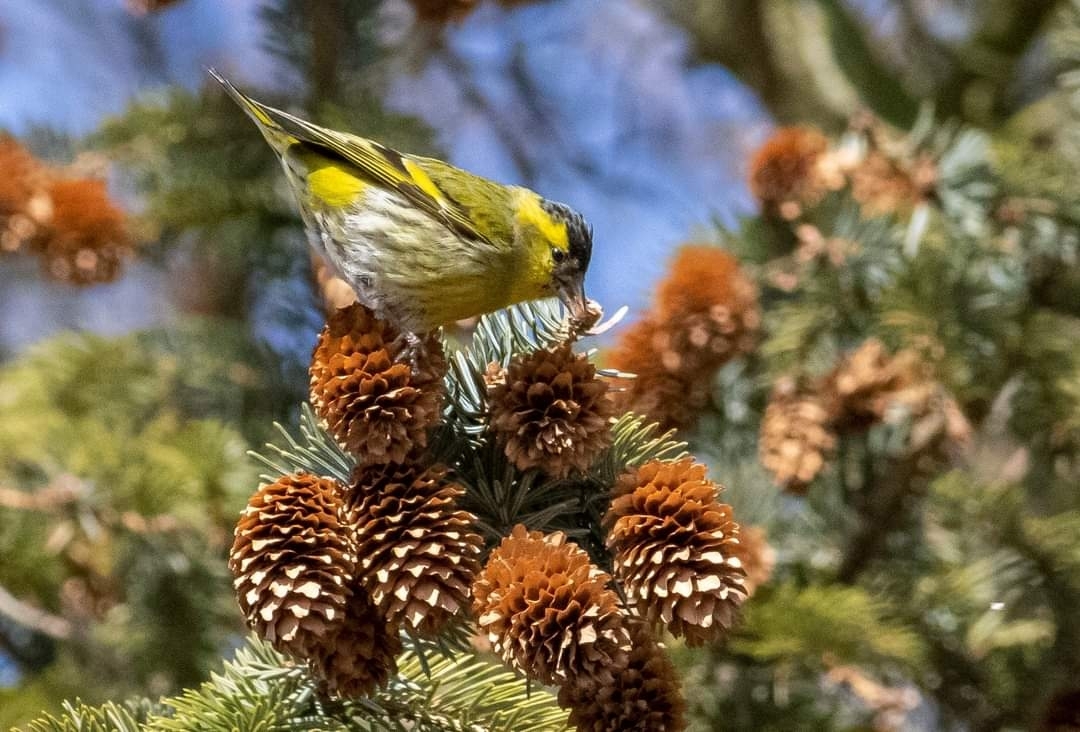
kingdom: Animalia
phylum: Chordata
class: Aves
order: Passeriformes
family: Fringillidae
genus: Spinus
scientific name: Spinus spinus
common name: Eurasian siskin
